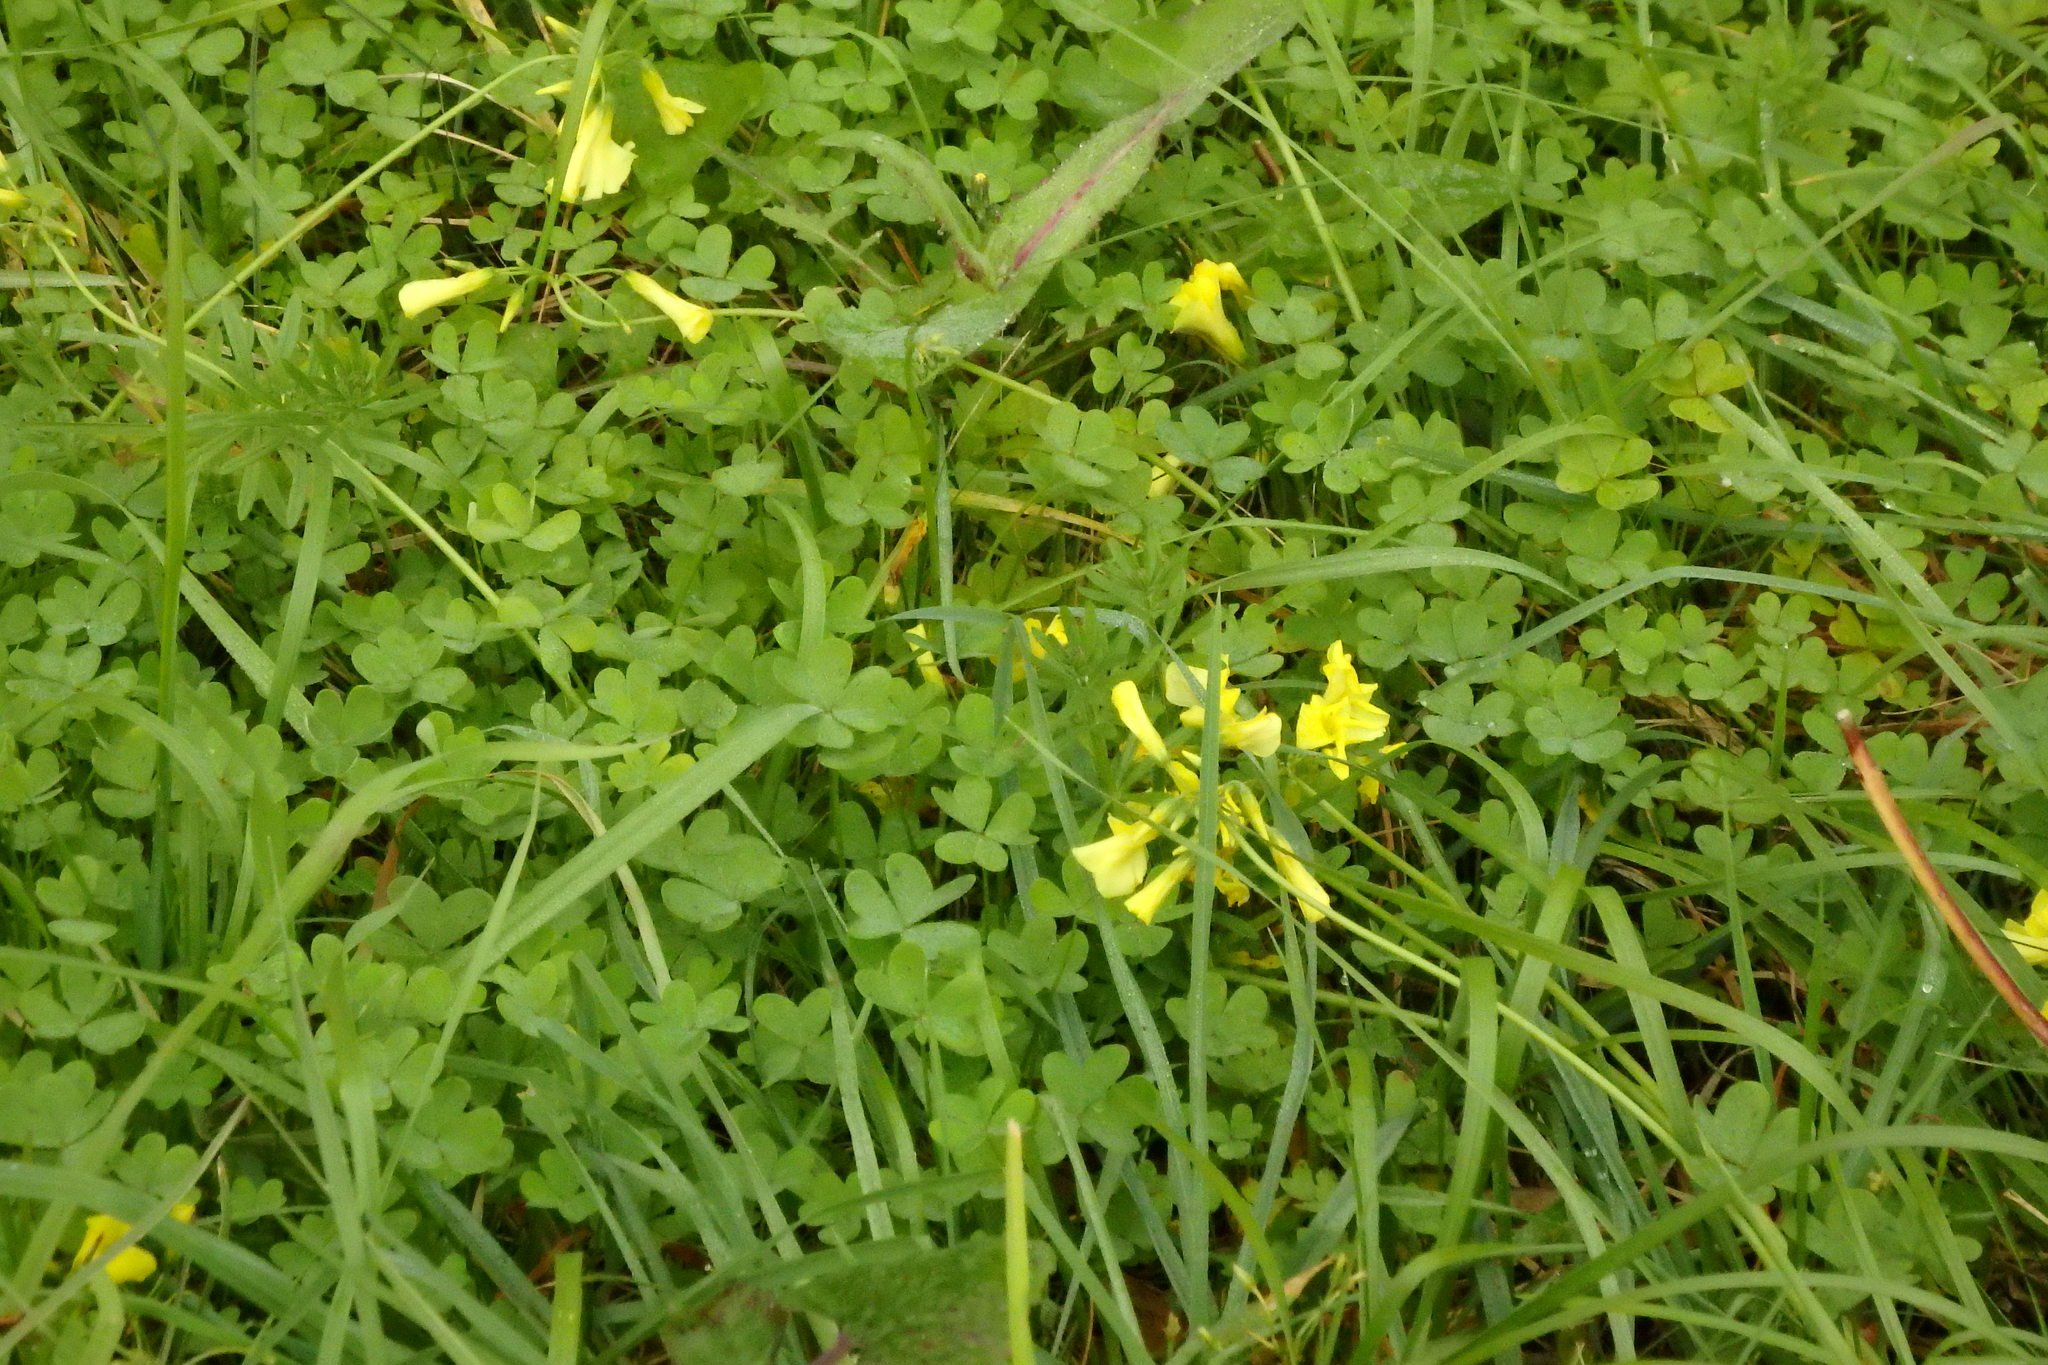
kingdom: Plantae
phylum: Tracheophyta
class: Magnoliopsida
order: Oxalidales
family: Oxalidaceae
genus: Oxalis
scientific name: Oxalis pes-caprae
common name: Bermuda-buttercup
